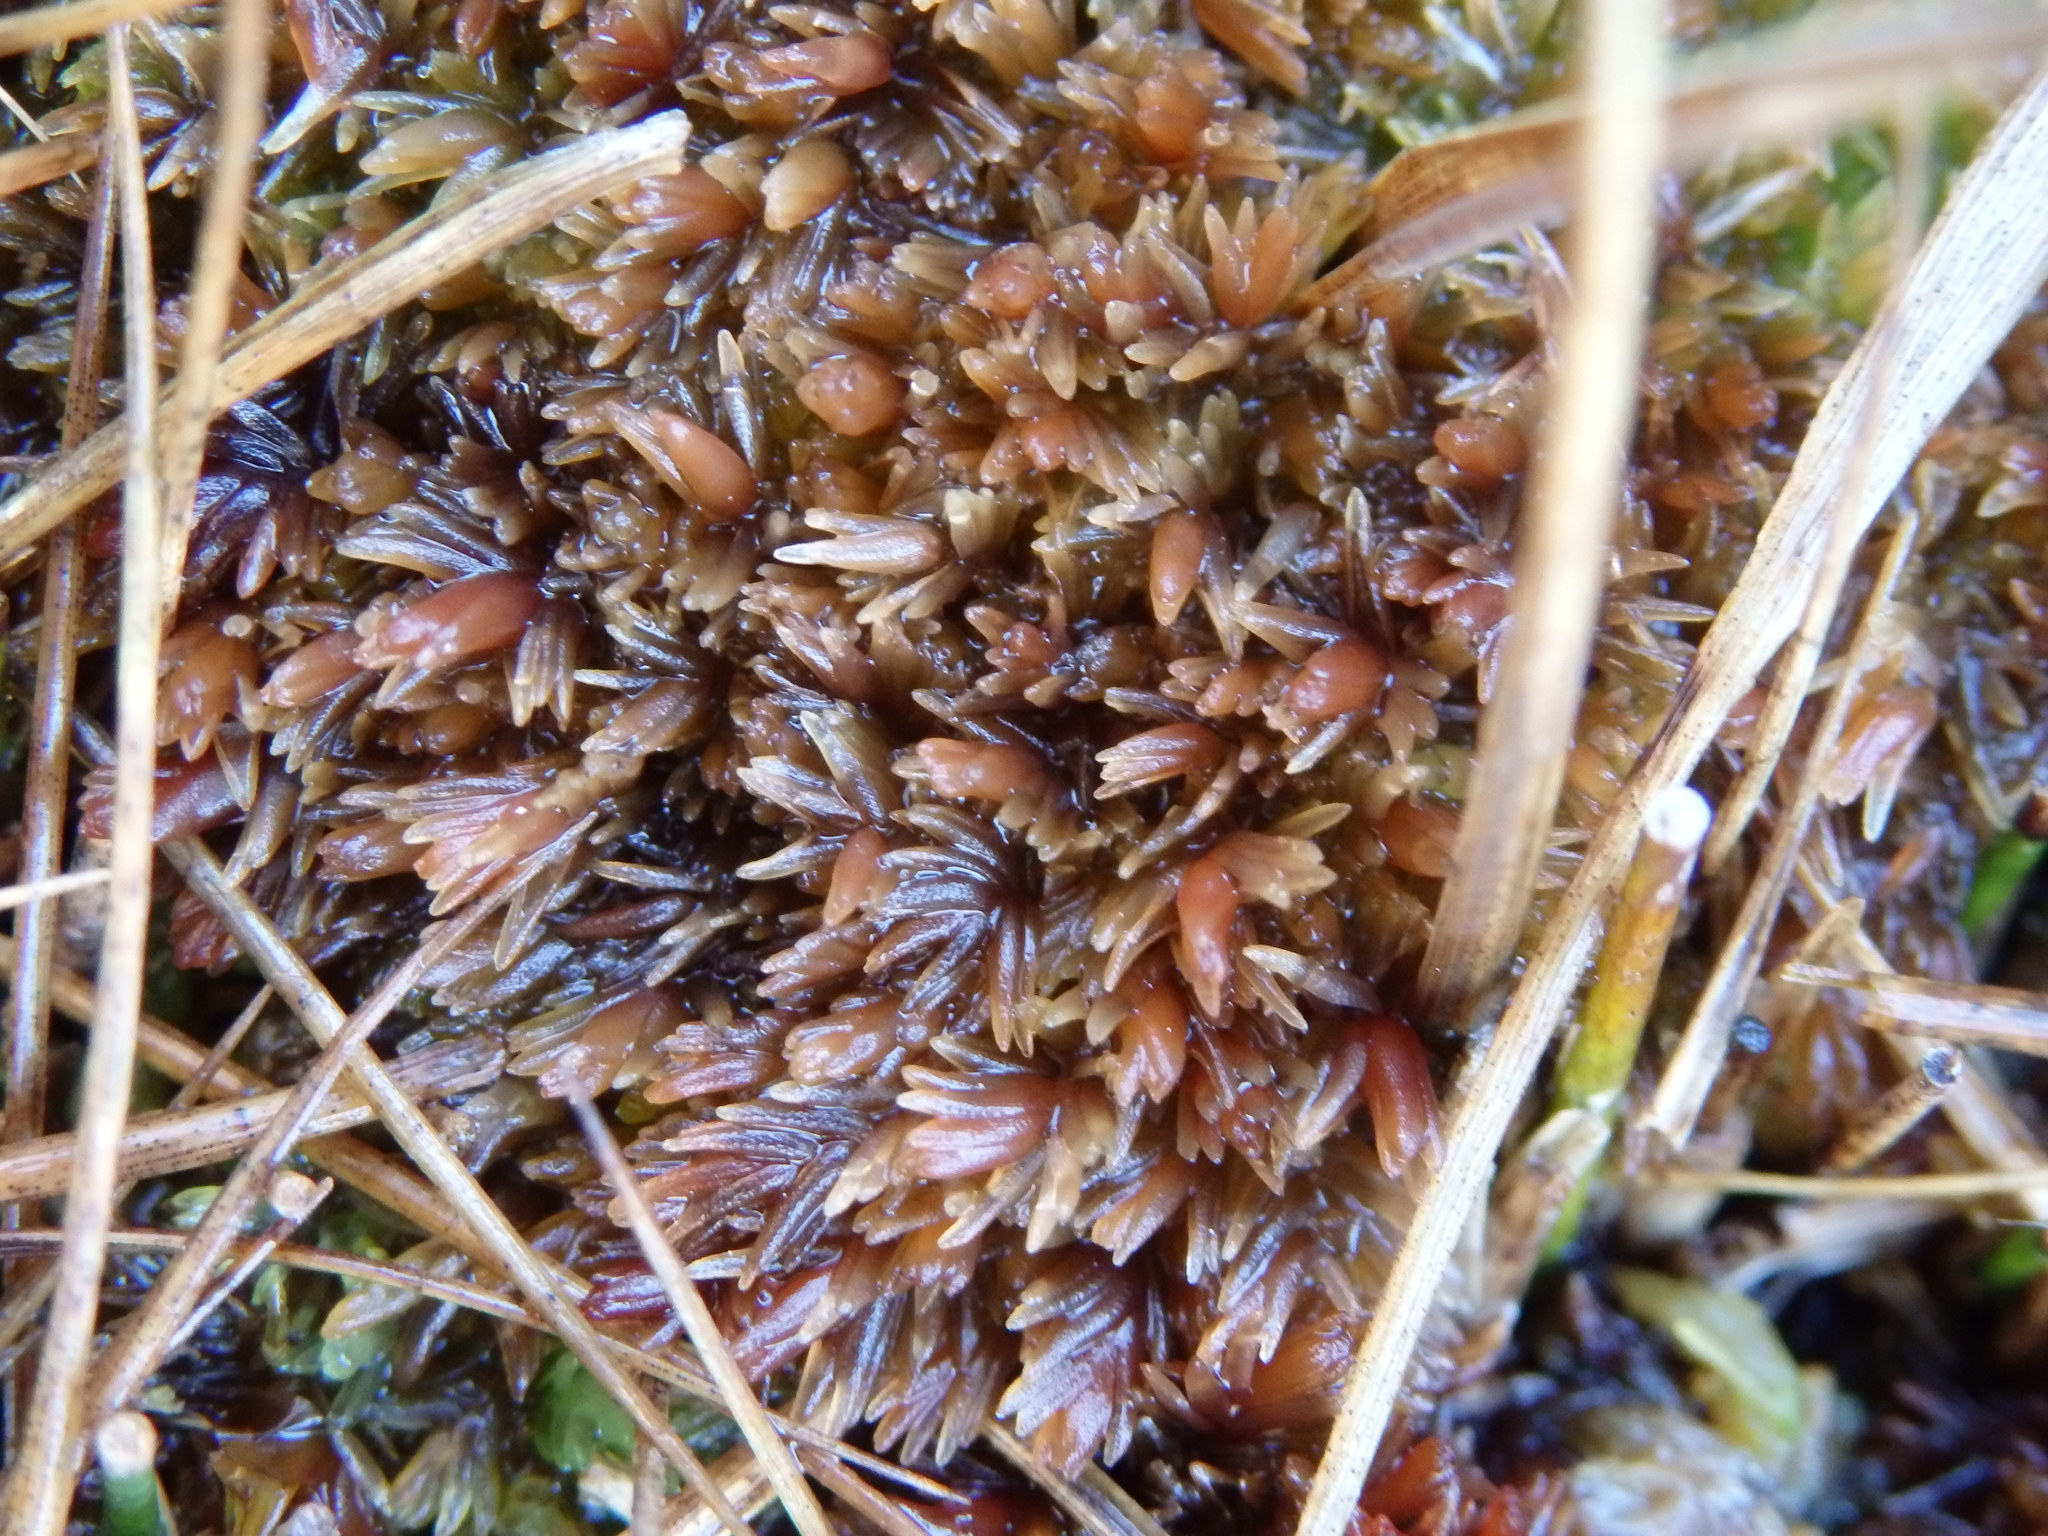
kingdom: Plantae
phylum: Bryophyta
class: Sphagnopsida
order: Sphagnales
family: Sphagnaceae
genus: Sphagnum
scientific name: Sphagnum compactum
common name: Compact peat moss
